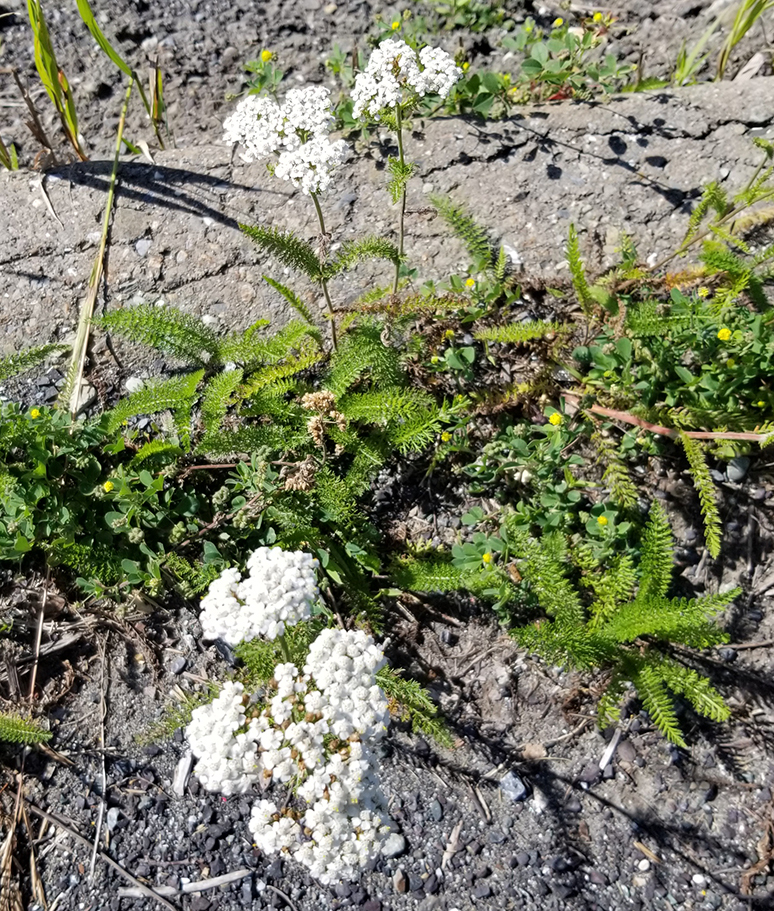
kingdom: Plantae
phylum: Tracheophyta
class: Magnoliopsida
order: Asterales
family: Asteraceae
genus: Achillea
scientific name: Achillea millefolium
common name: Yarrow
